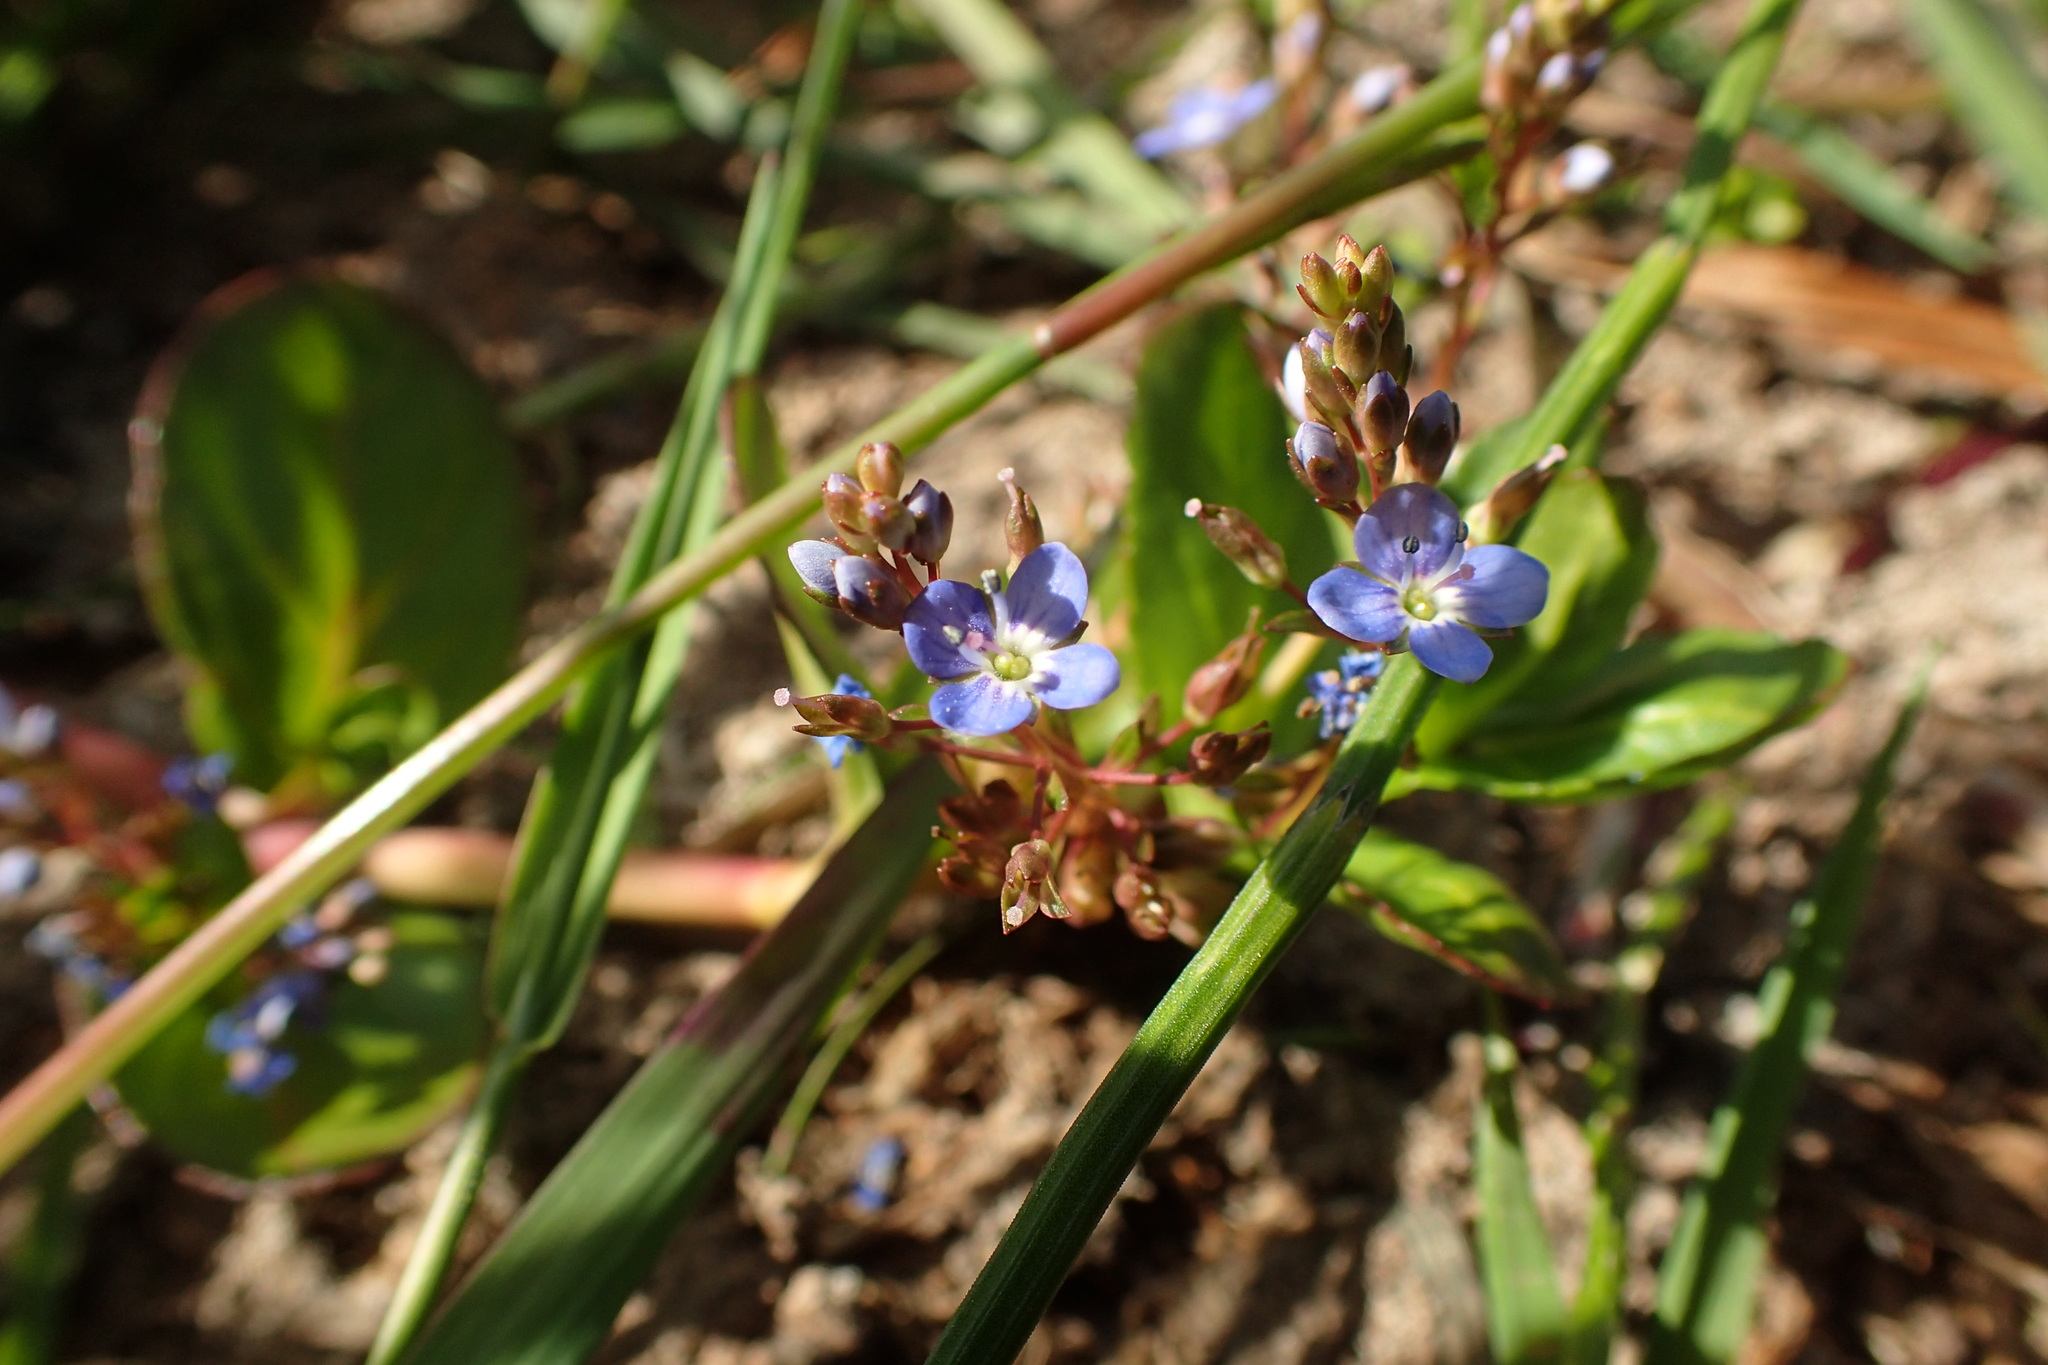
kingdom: Plantae
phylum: Tracheophyta
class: Magnoliopsida
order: Lamiales
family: Plantaginaceae
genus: Veronica
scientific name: Veronica beccabunga
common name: Brooklime
